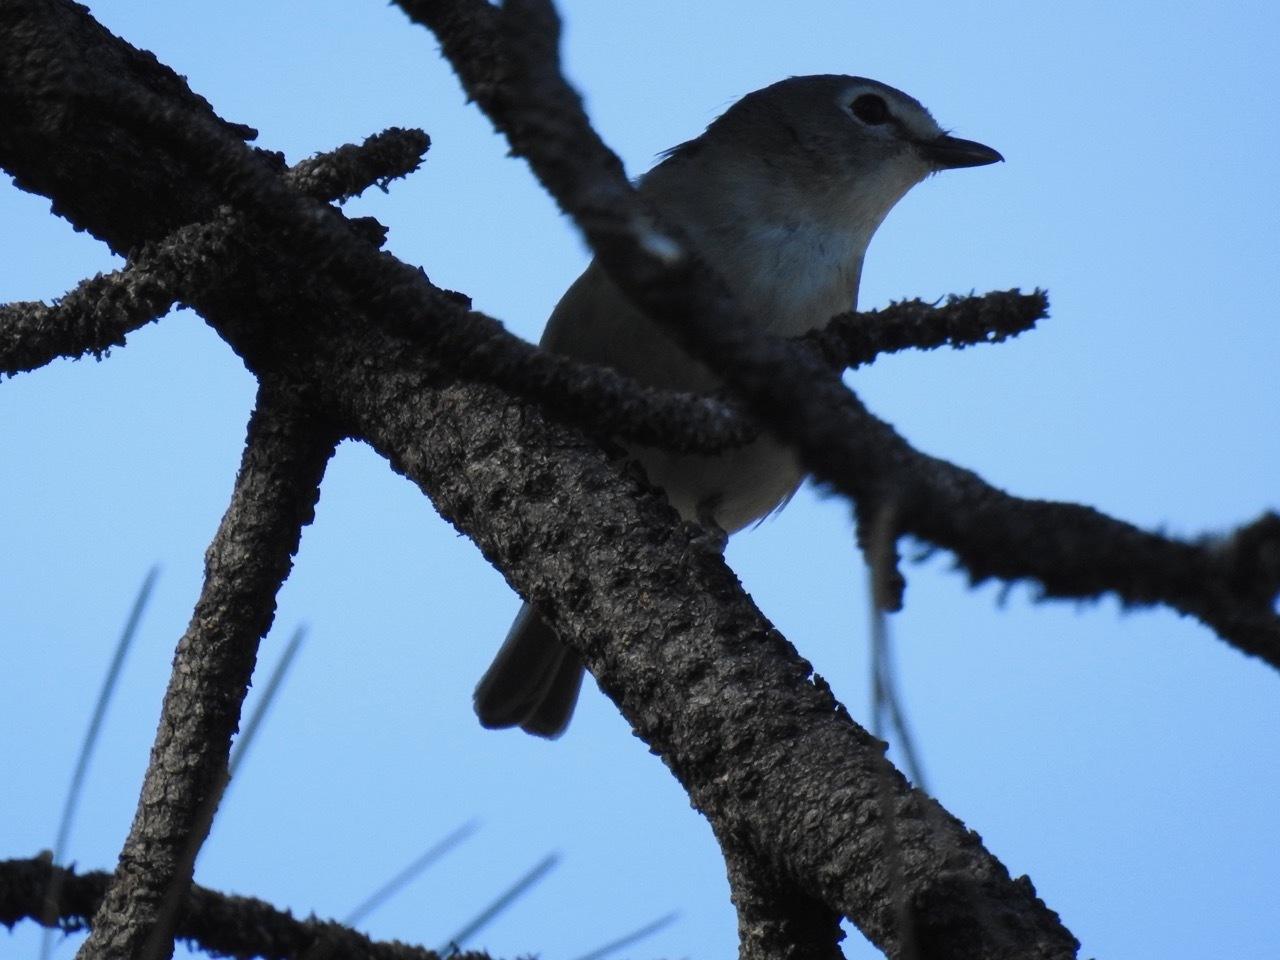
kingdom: Animalia
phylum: Chordata
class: Aves
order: Passeriformes
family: Vireonidae
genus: Vireo
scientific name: Vireo cassinii
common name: Cassin's vireo
